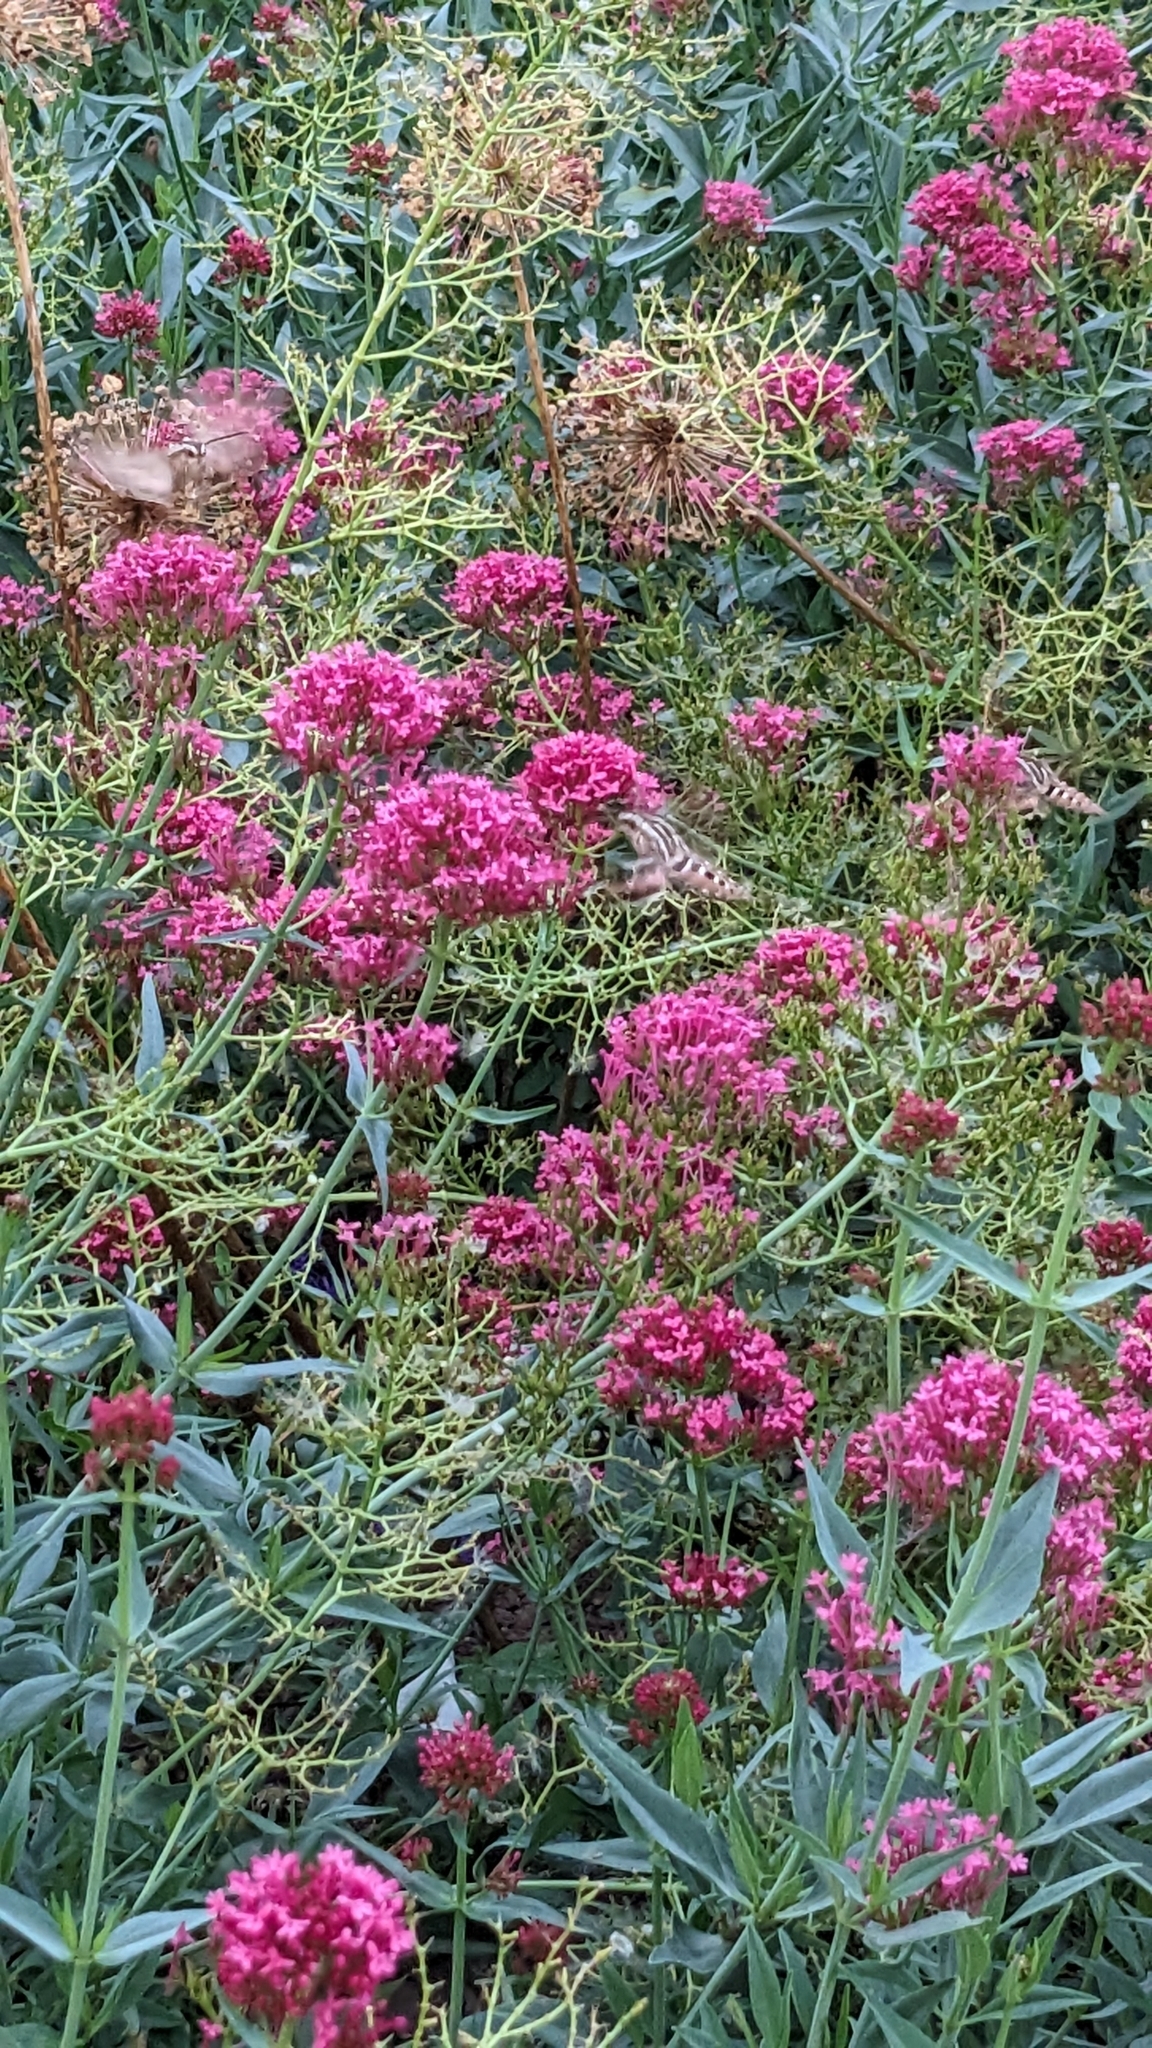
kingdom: Animalia
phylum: Arthropoda
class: Insecta
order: Lepidoptera
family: Sphingidae
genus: Hyles
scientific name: Hyles lineata
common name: White-lined sphinx
